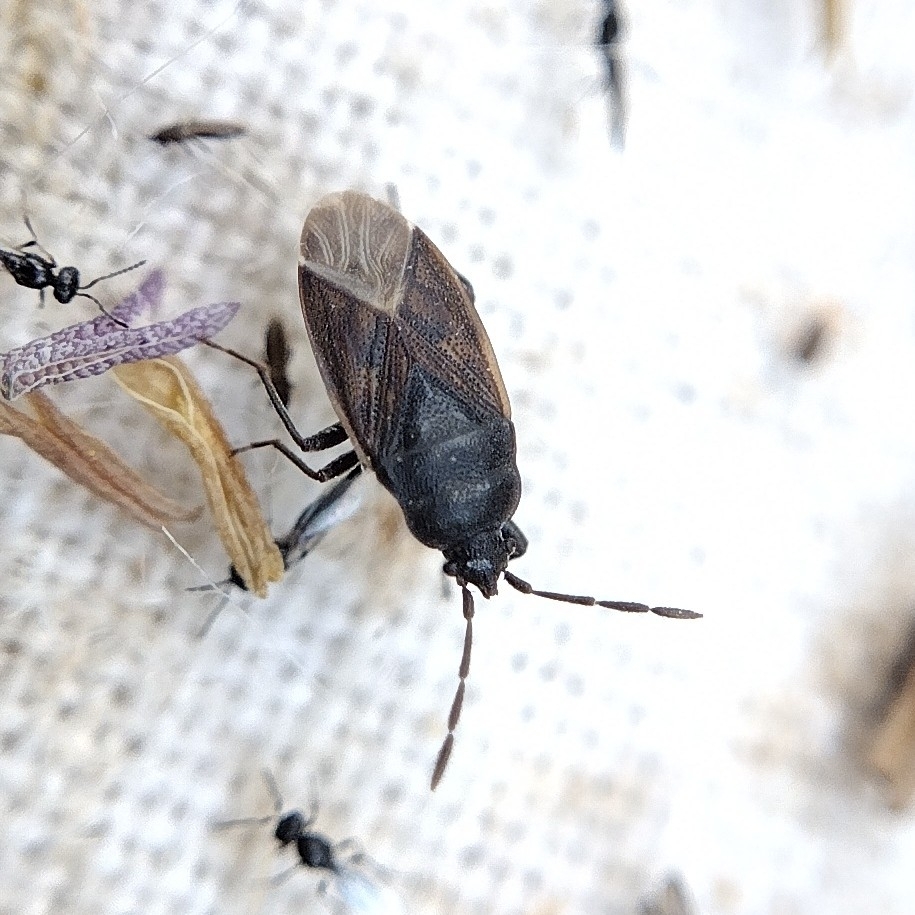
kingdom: Animalia
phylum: Arthropoda
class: Insecta
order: Hemiptera
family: Rhyparochromidae
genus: Drymus
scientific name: Drymus sylvaticus
